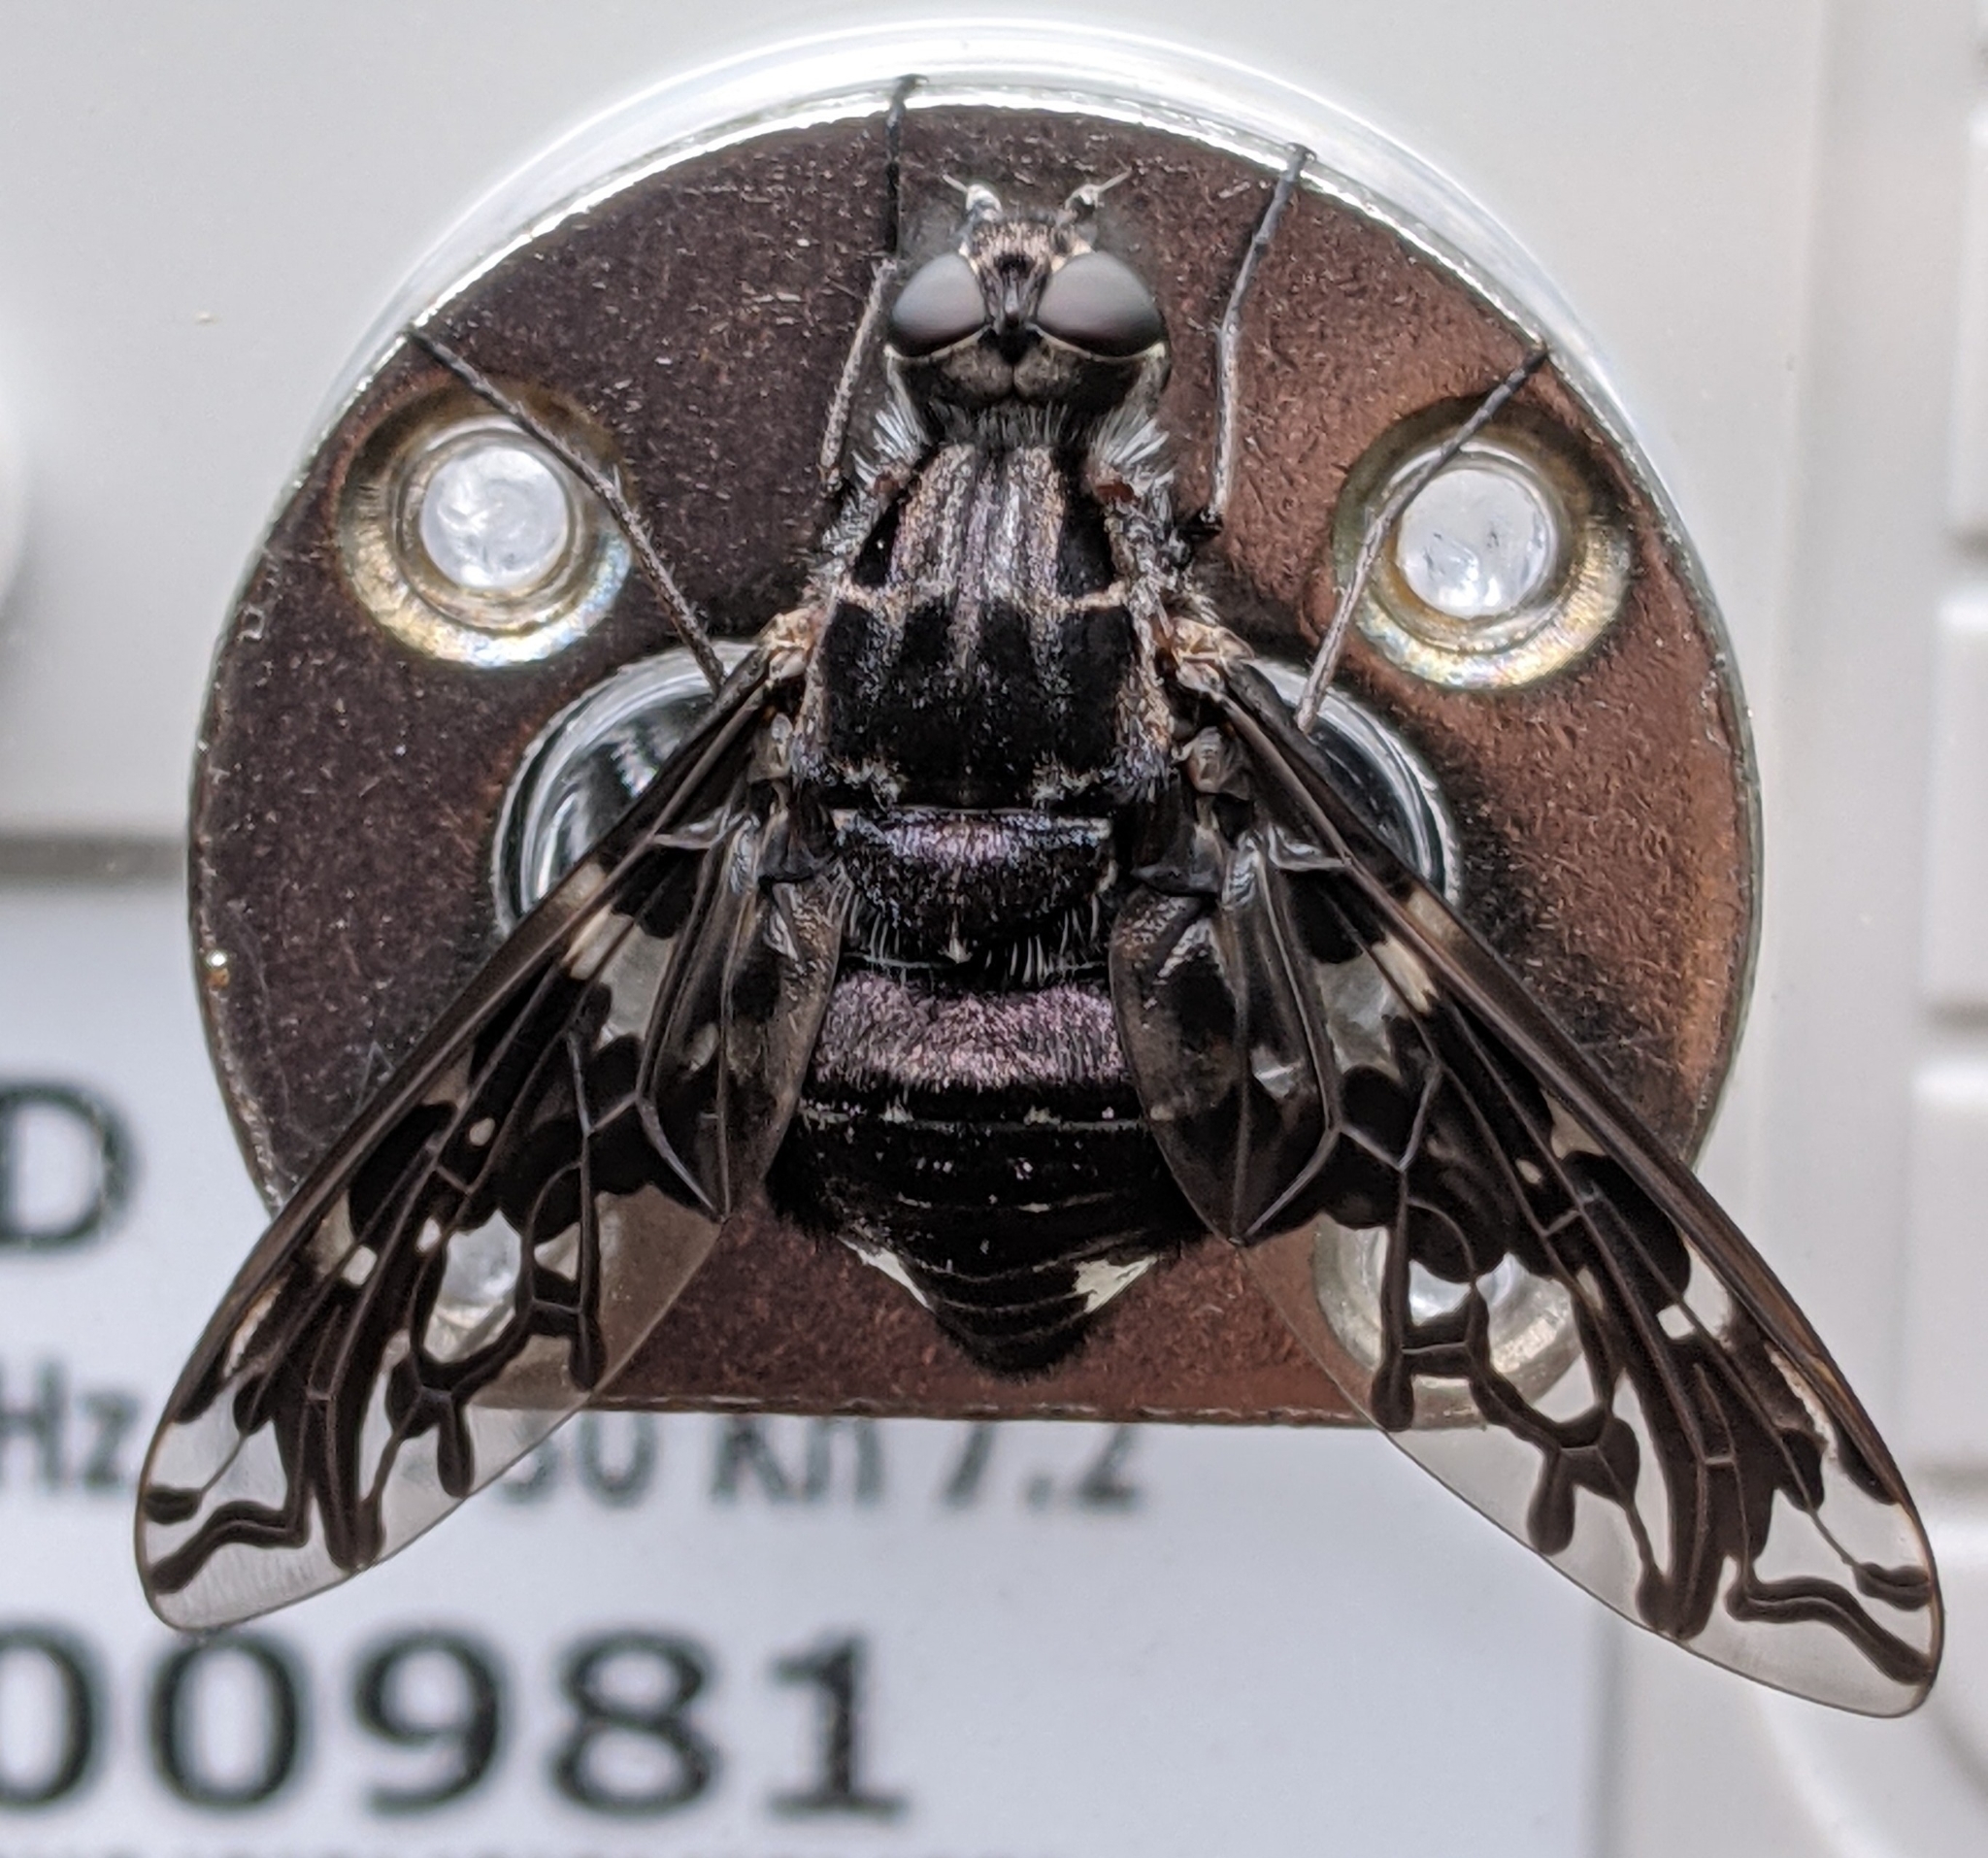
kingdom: Animalia
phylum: Arthropoda
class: Insecta
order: Diptera
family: Bombyliidae
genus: Xenox
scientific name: Xenox tigrinus
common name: Tiger bee fly
